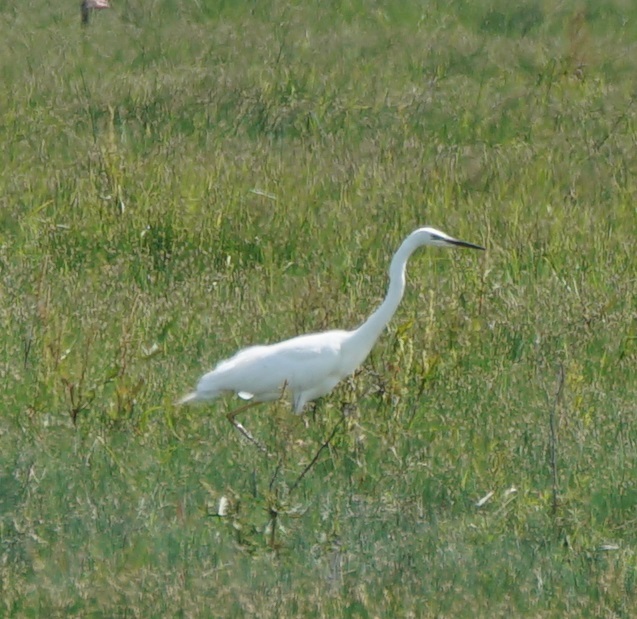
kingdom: Animalia
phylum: Chordata
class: Aves
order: Pelecaniformes
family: Ardeidae
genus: Ardea
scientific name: Ardea alba
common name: Great egret
